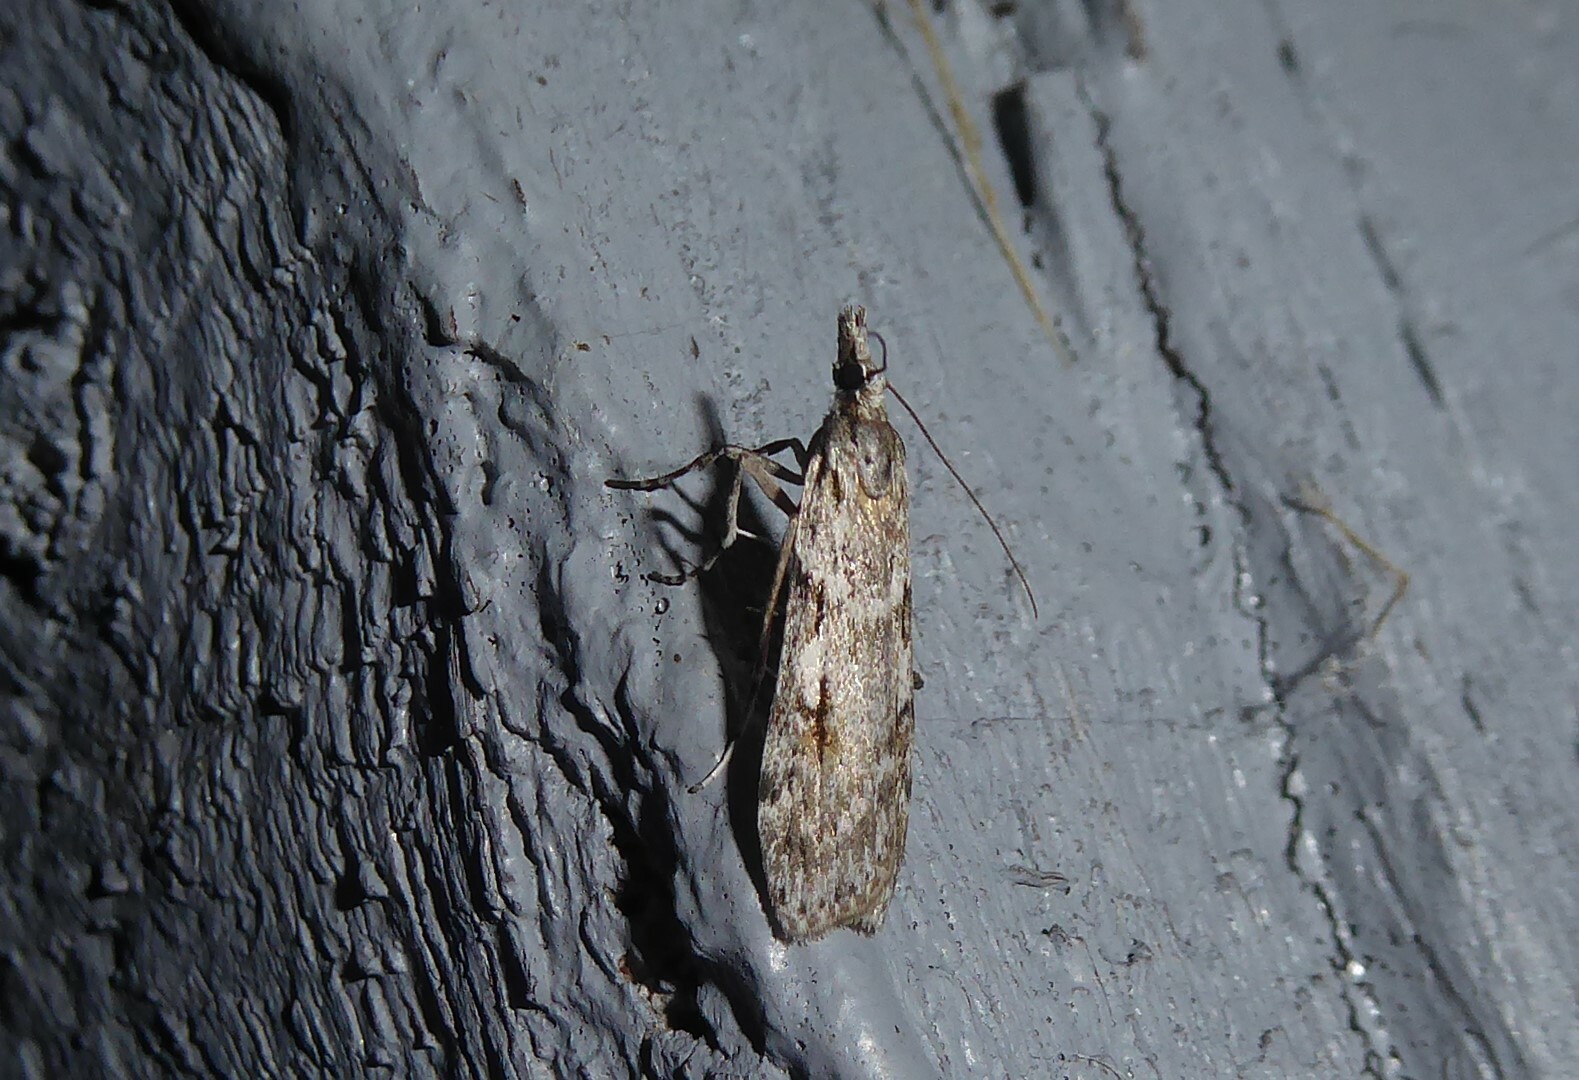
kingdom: Animalia
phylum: Arthropoda
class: Insecta
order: Lepidoptera
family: Crambidae
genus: Scoparia
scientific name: Scoparia halopis
